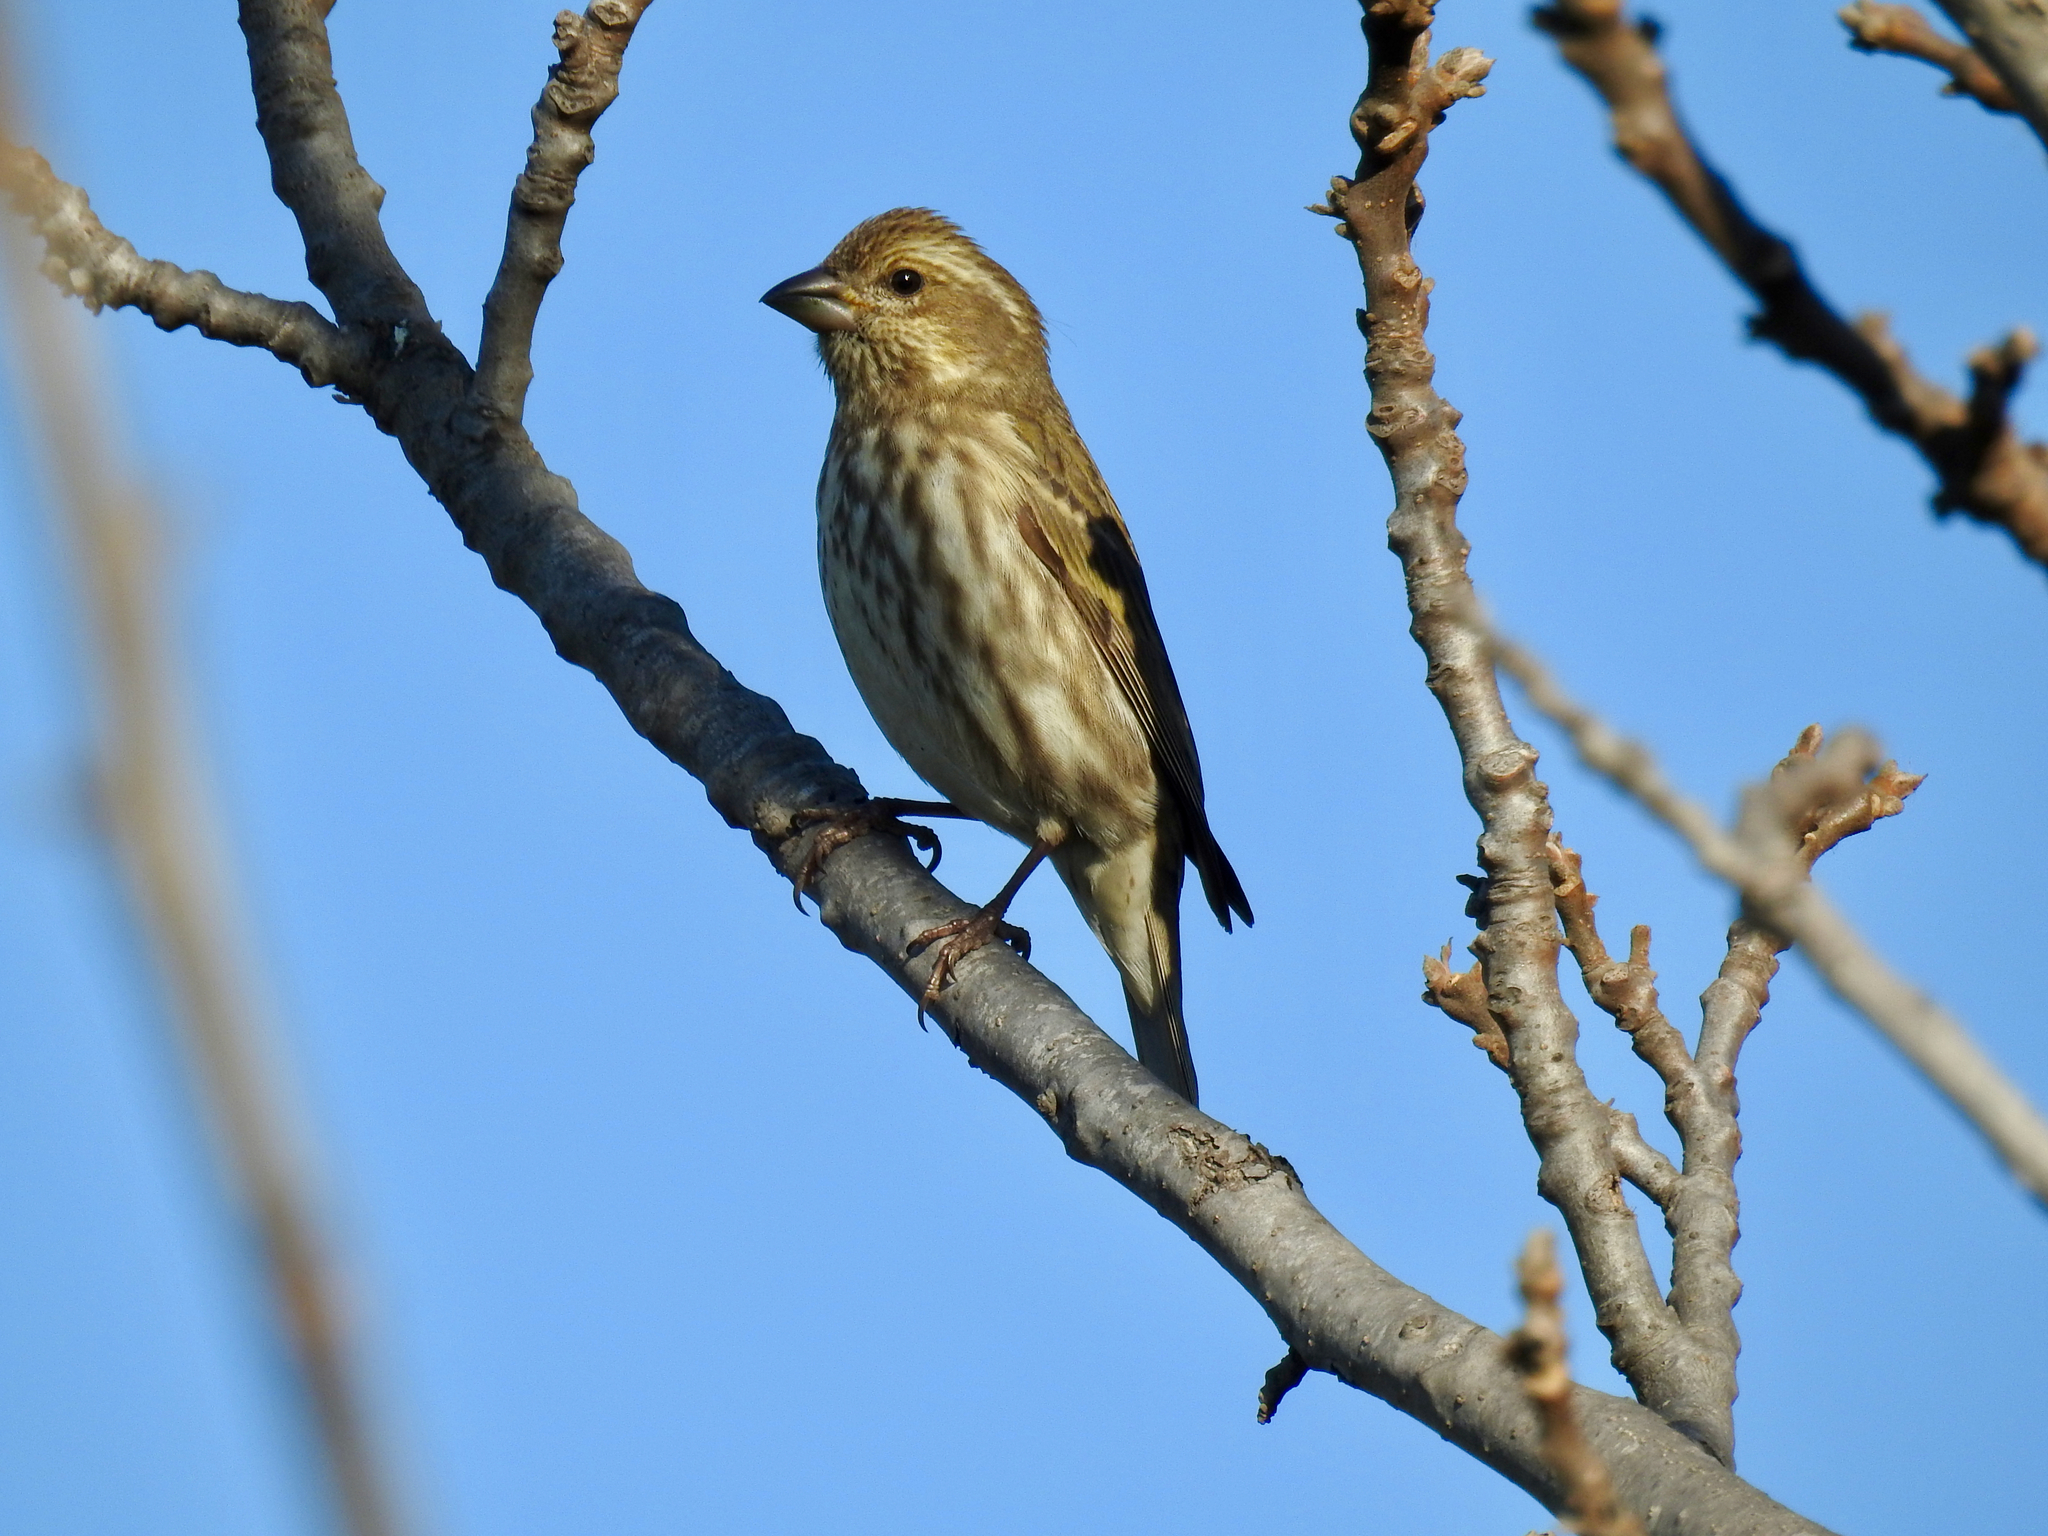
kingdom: Animalia
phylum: Chordata
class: Aves
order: Passeriformes
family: Fringillidae
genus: Haemorhous
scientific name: Haemorhous purpureus
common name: Purple finch
